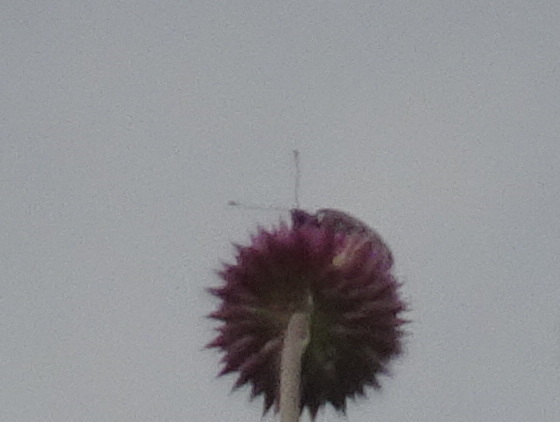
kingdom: Animalia
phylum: Arthropoda
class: Insecta
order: Lepidoptera
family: Nymphalidae
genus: Speyeria
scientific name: Speyeria idalia
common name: Regal fritillary
